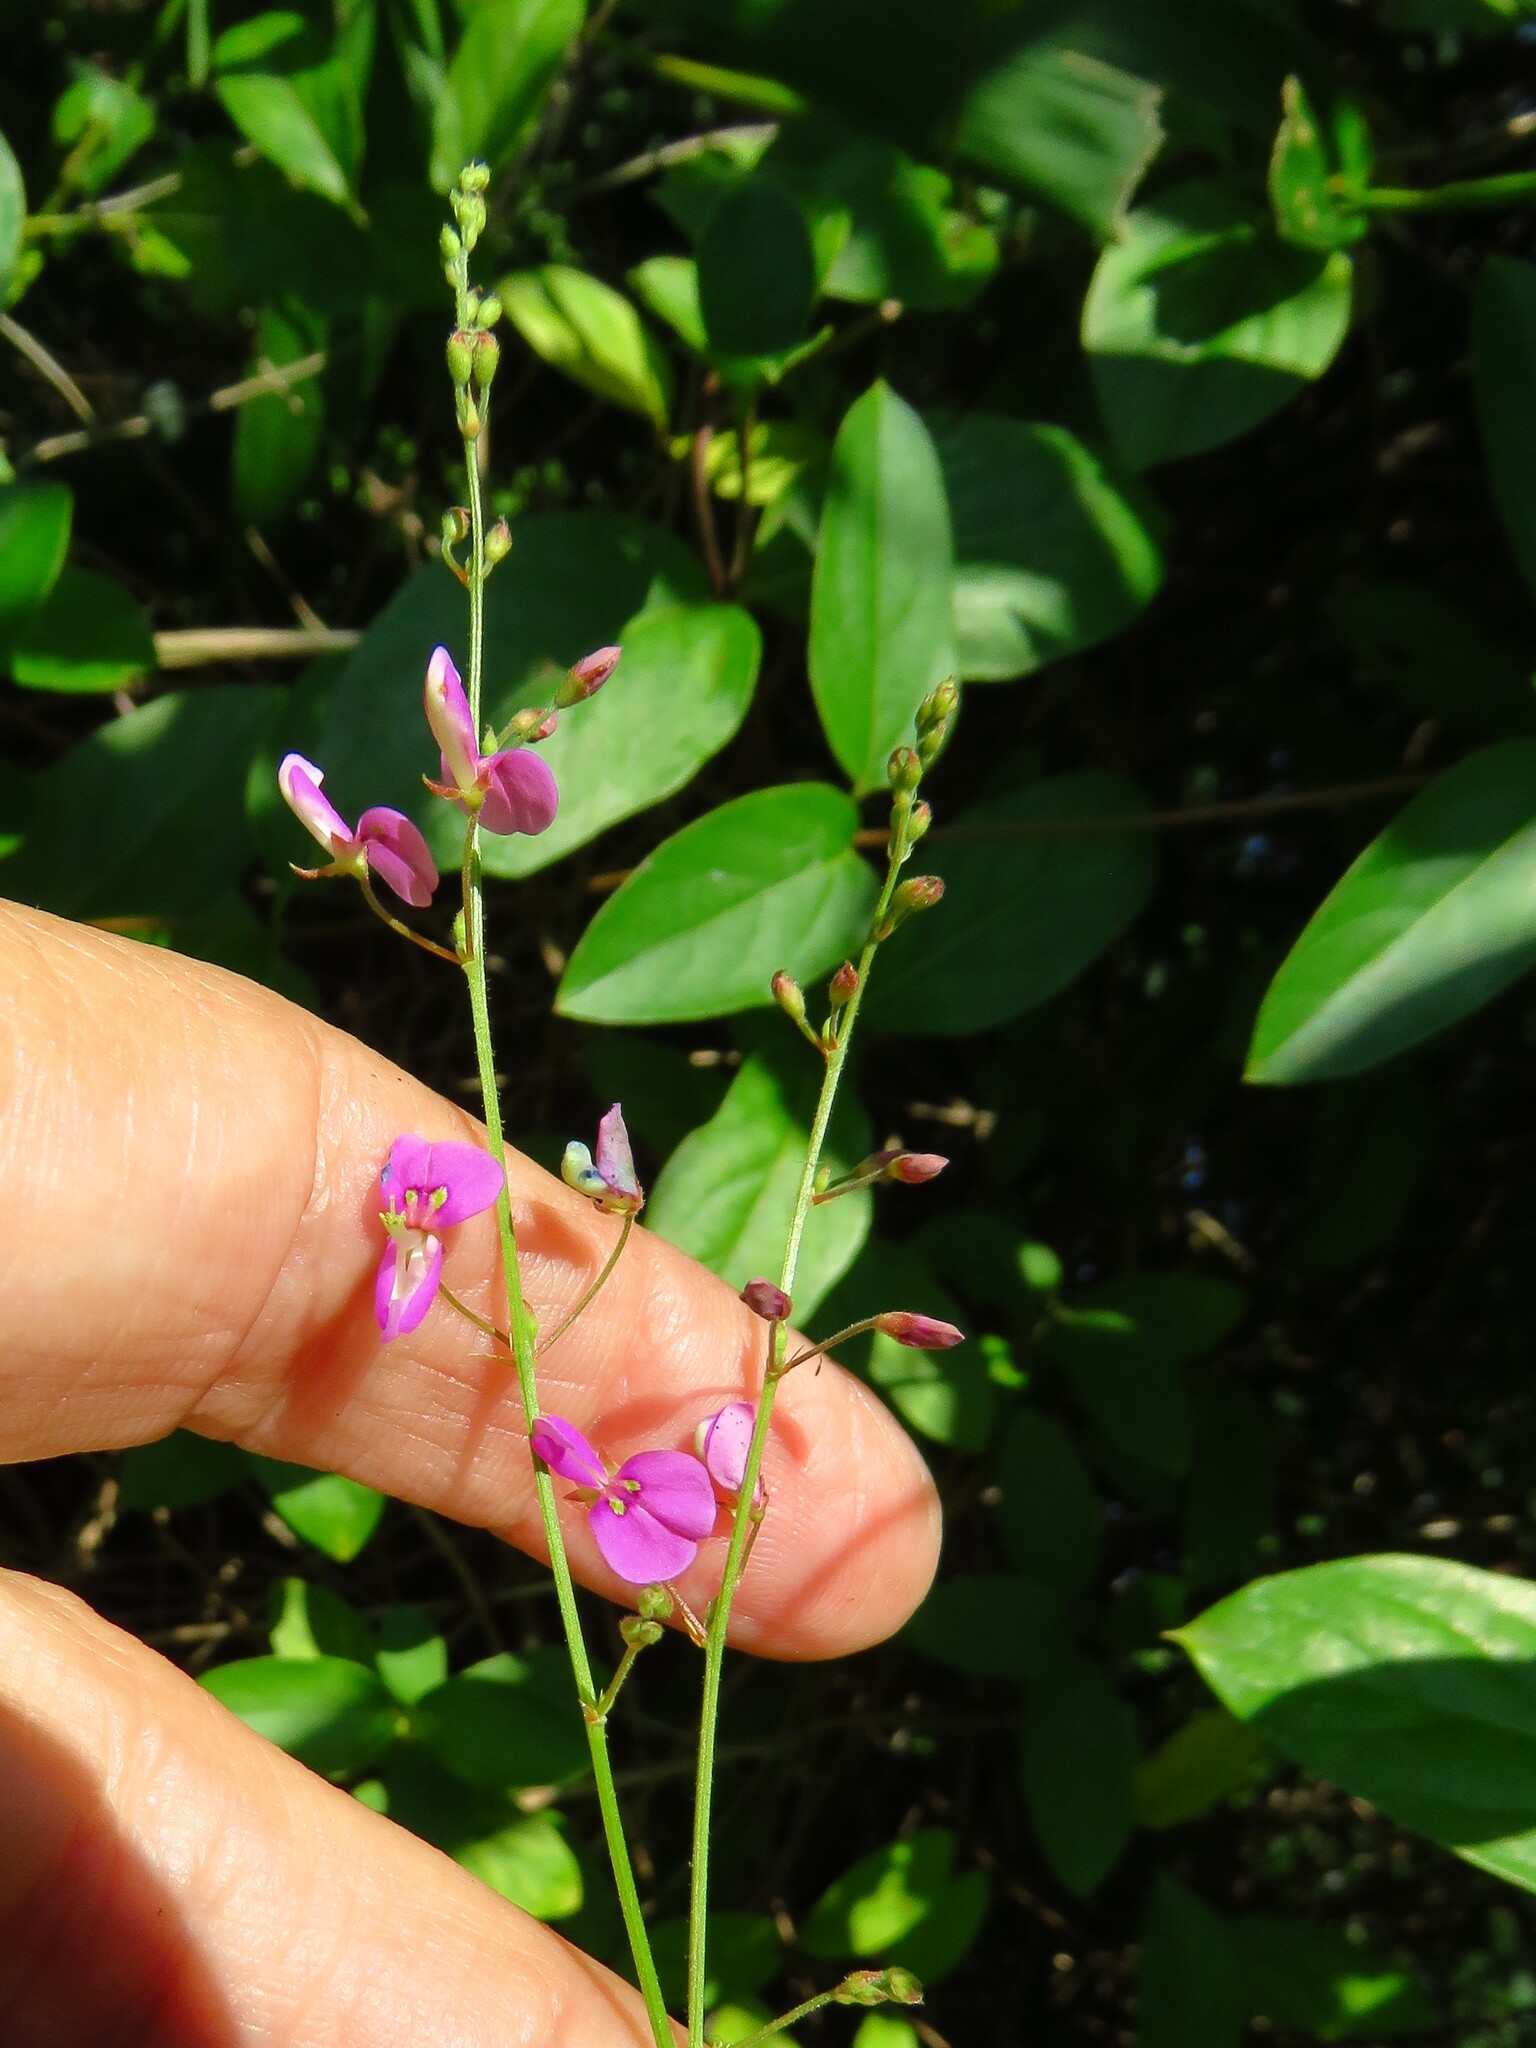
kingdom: Plantae
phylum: Tracheophyta
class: Magnoliopsida
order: Fabales
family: Fabaceae
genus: Desmodium
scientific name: Desmodium paniculatum
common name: Panicled tick-clover
